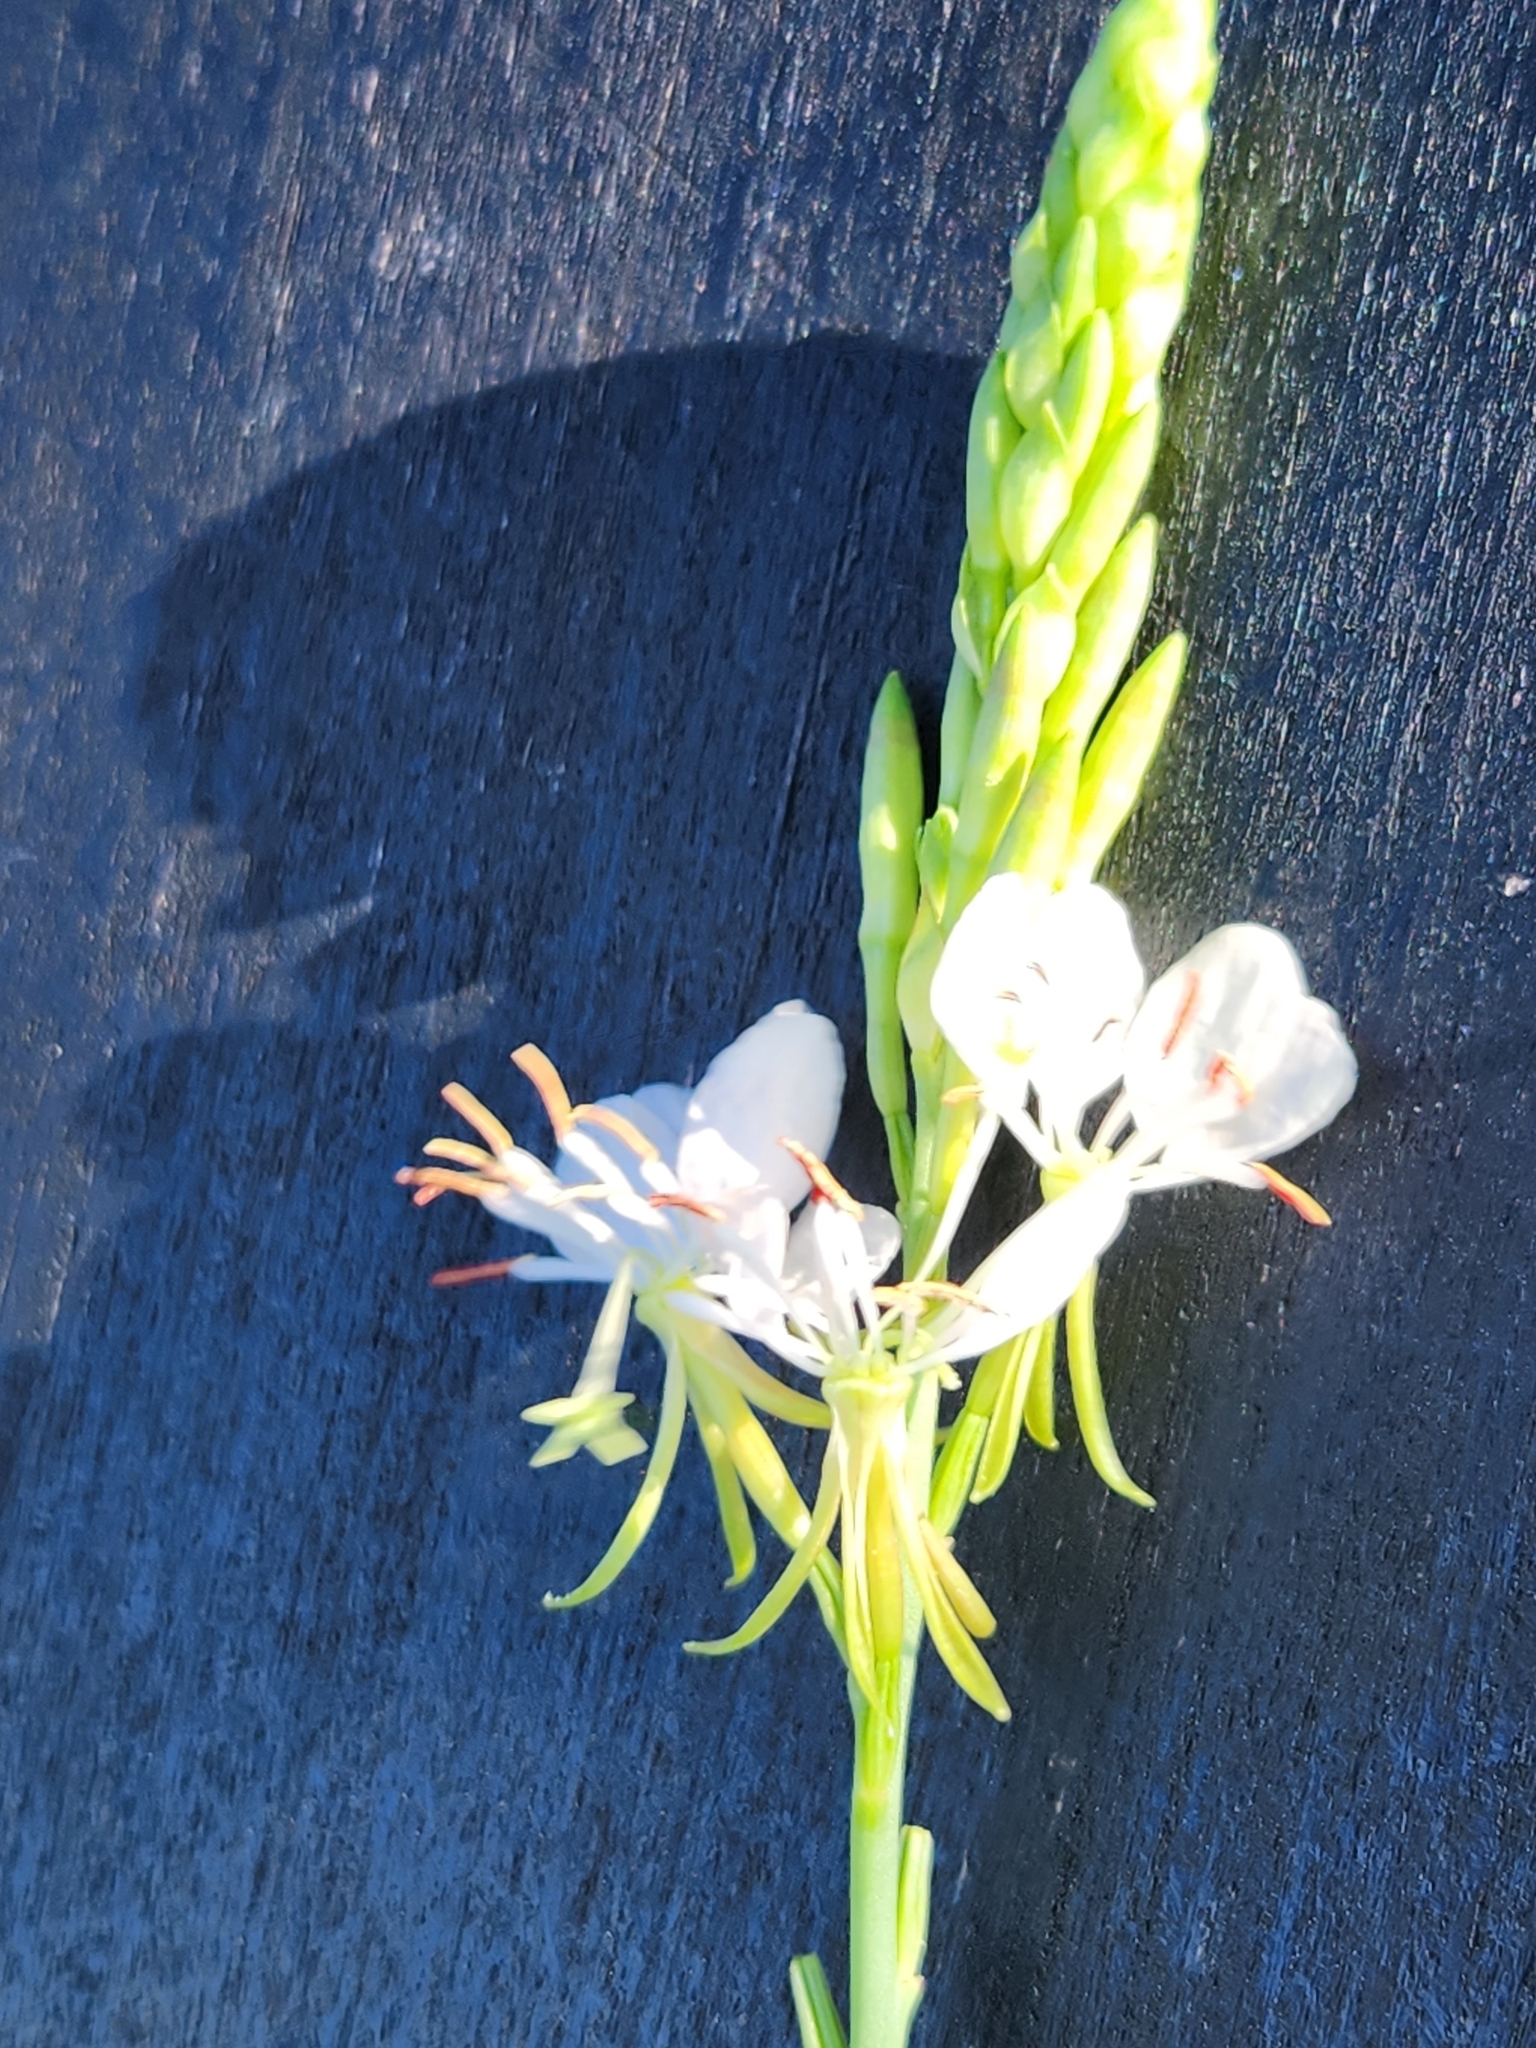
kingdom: Plantae
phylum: Tracheophyta
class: Magnoliopsida
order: Myrtales
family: Onagraceae
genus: Oenothera
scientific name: Oenothera suffulta
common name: Kisses
